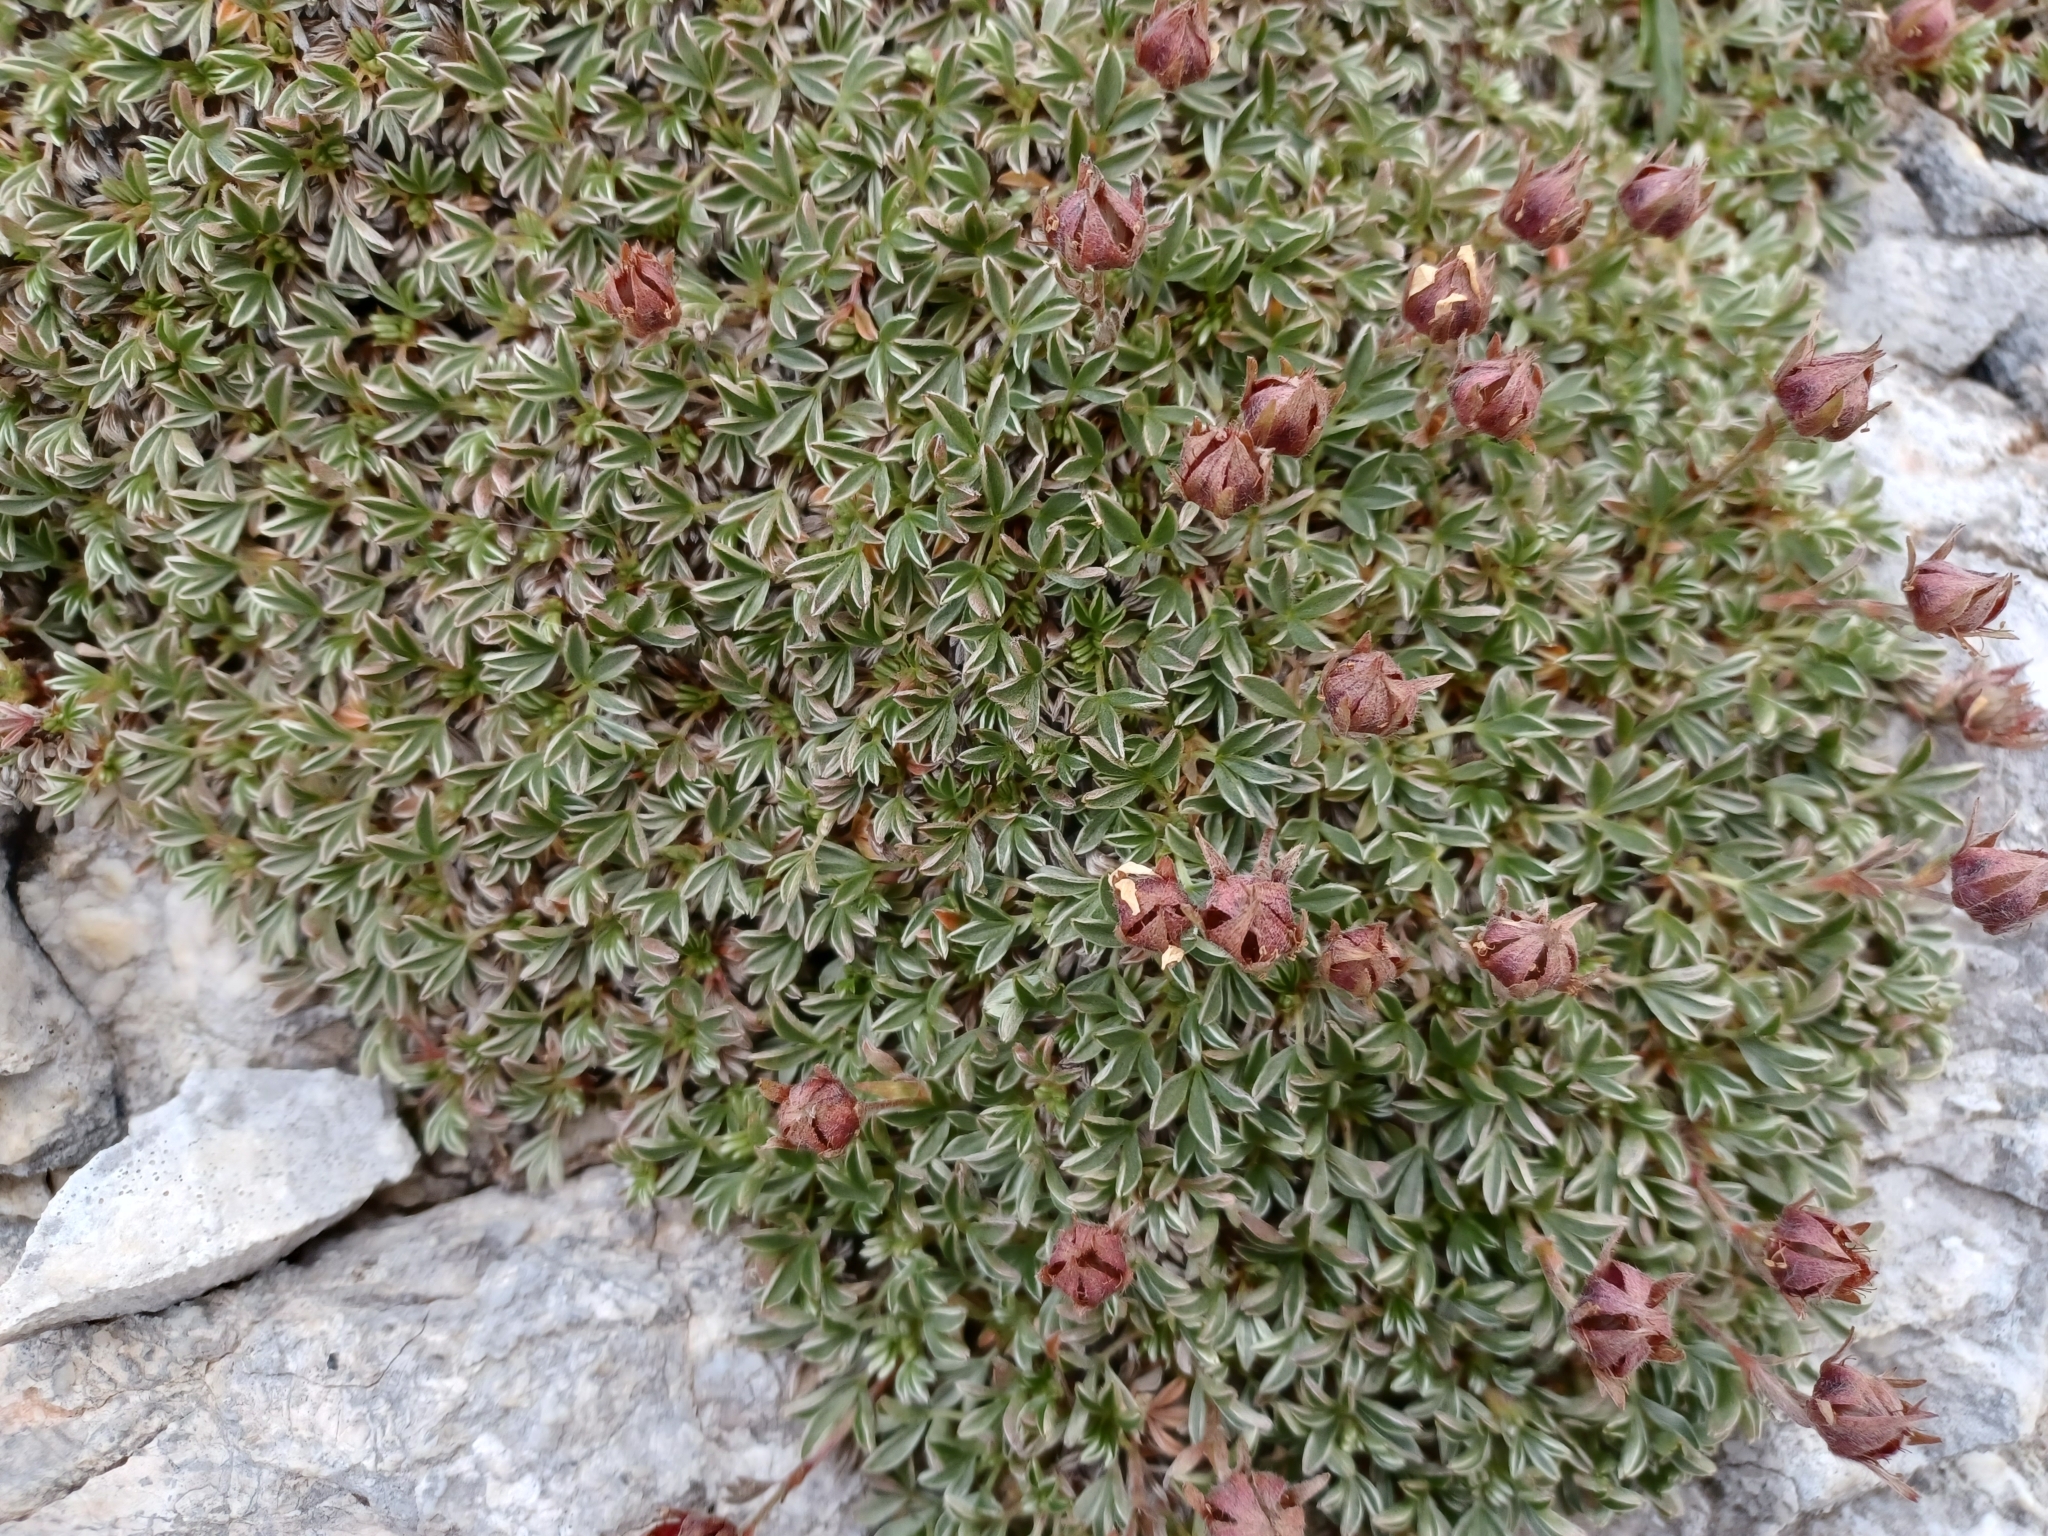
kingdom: Plantae
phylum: Tracheophyta
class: Magnoliopsida
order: Rosales
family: Rosaceae
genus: Potentilla
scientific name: Potentilla nitida
